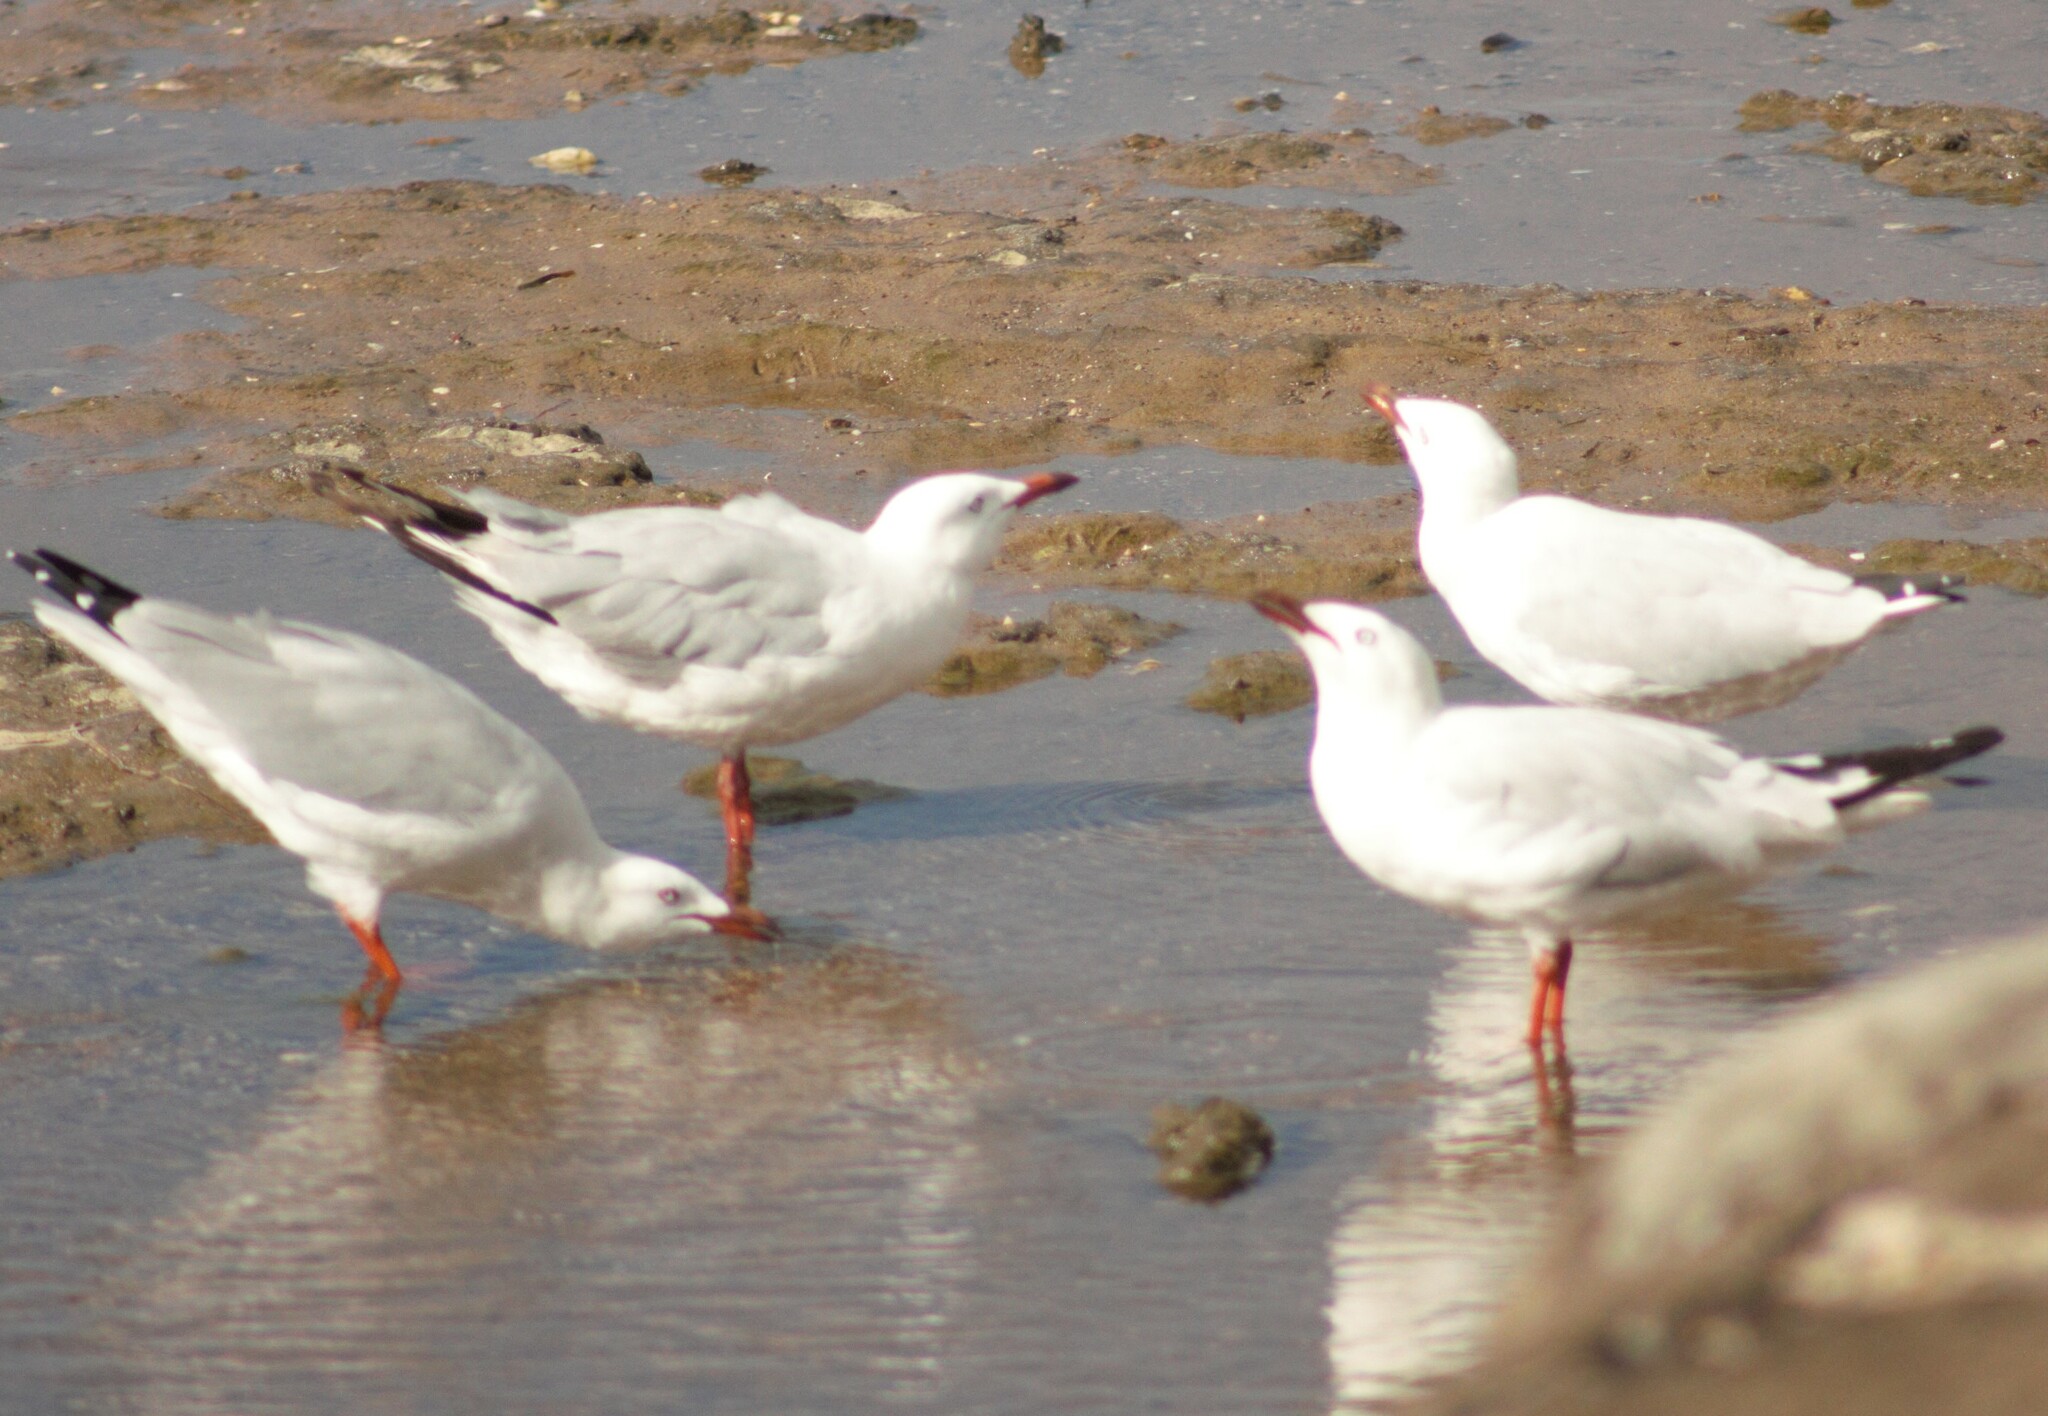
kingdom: Animalia
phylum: Chordata
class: Aves
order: Charadriiformes
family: Laridae
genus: Chroicocephalus
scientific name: Chroicocephalus novaehollandiae
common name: Silver gull
